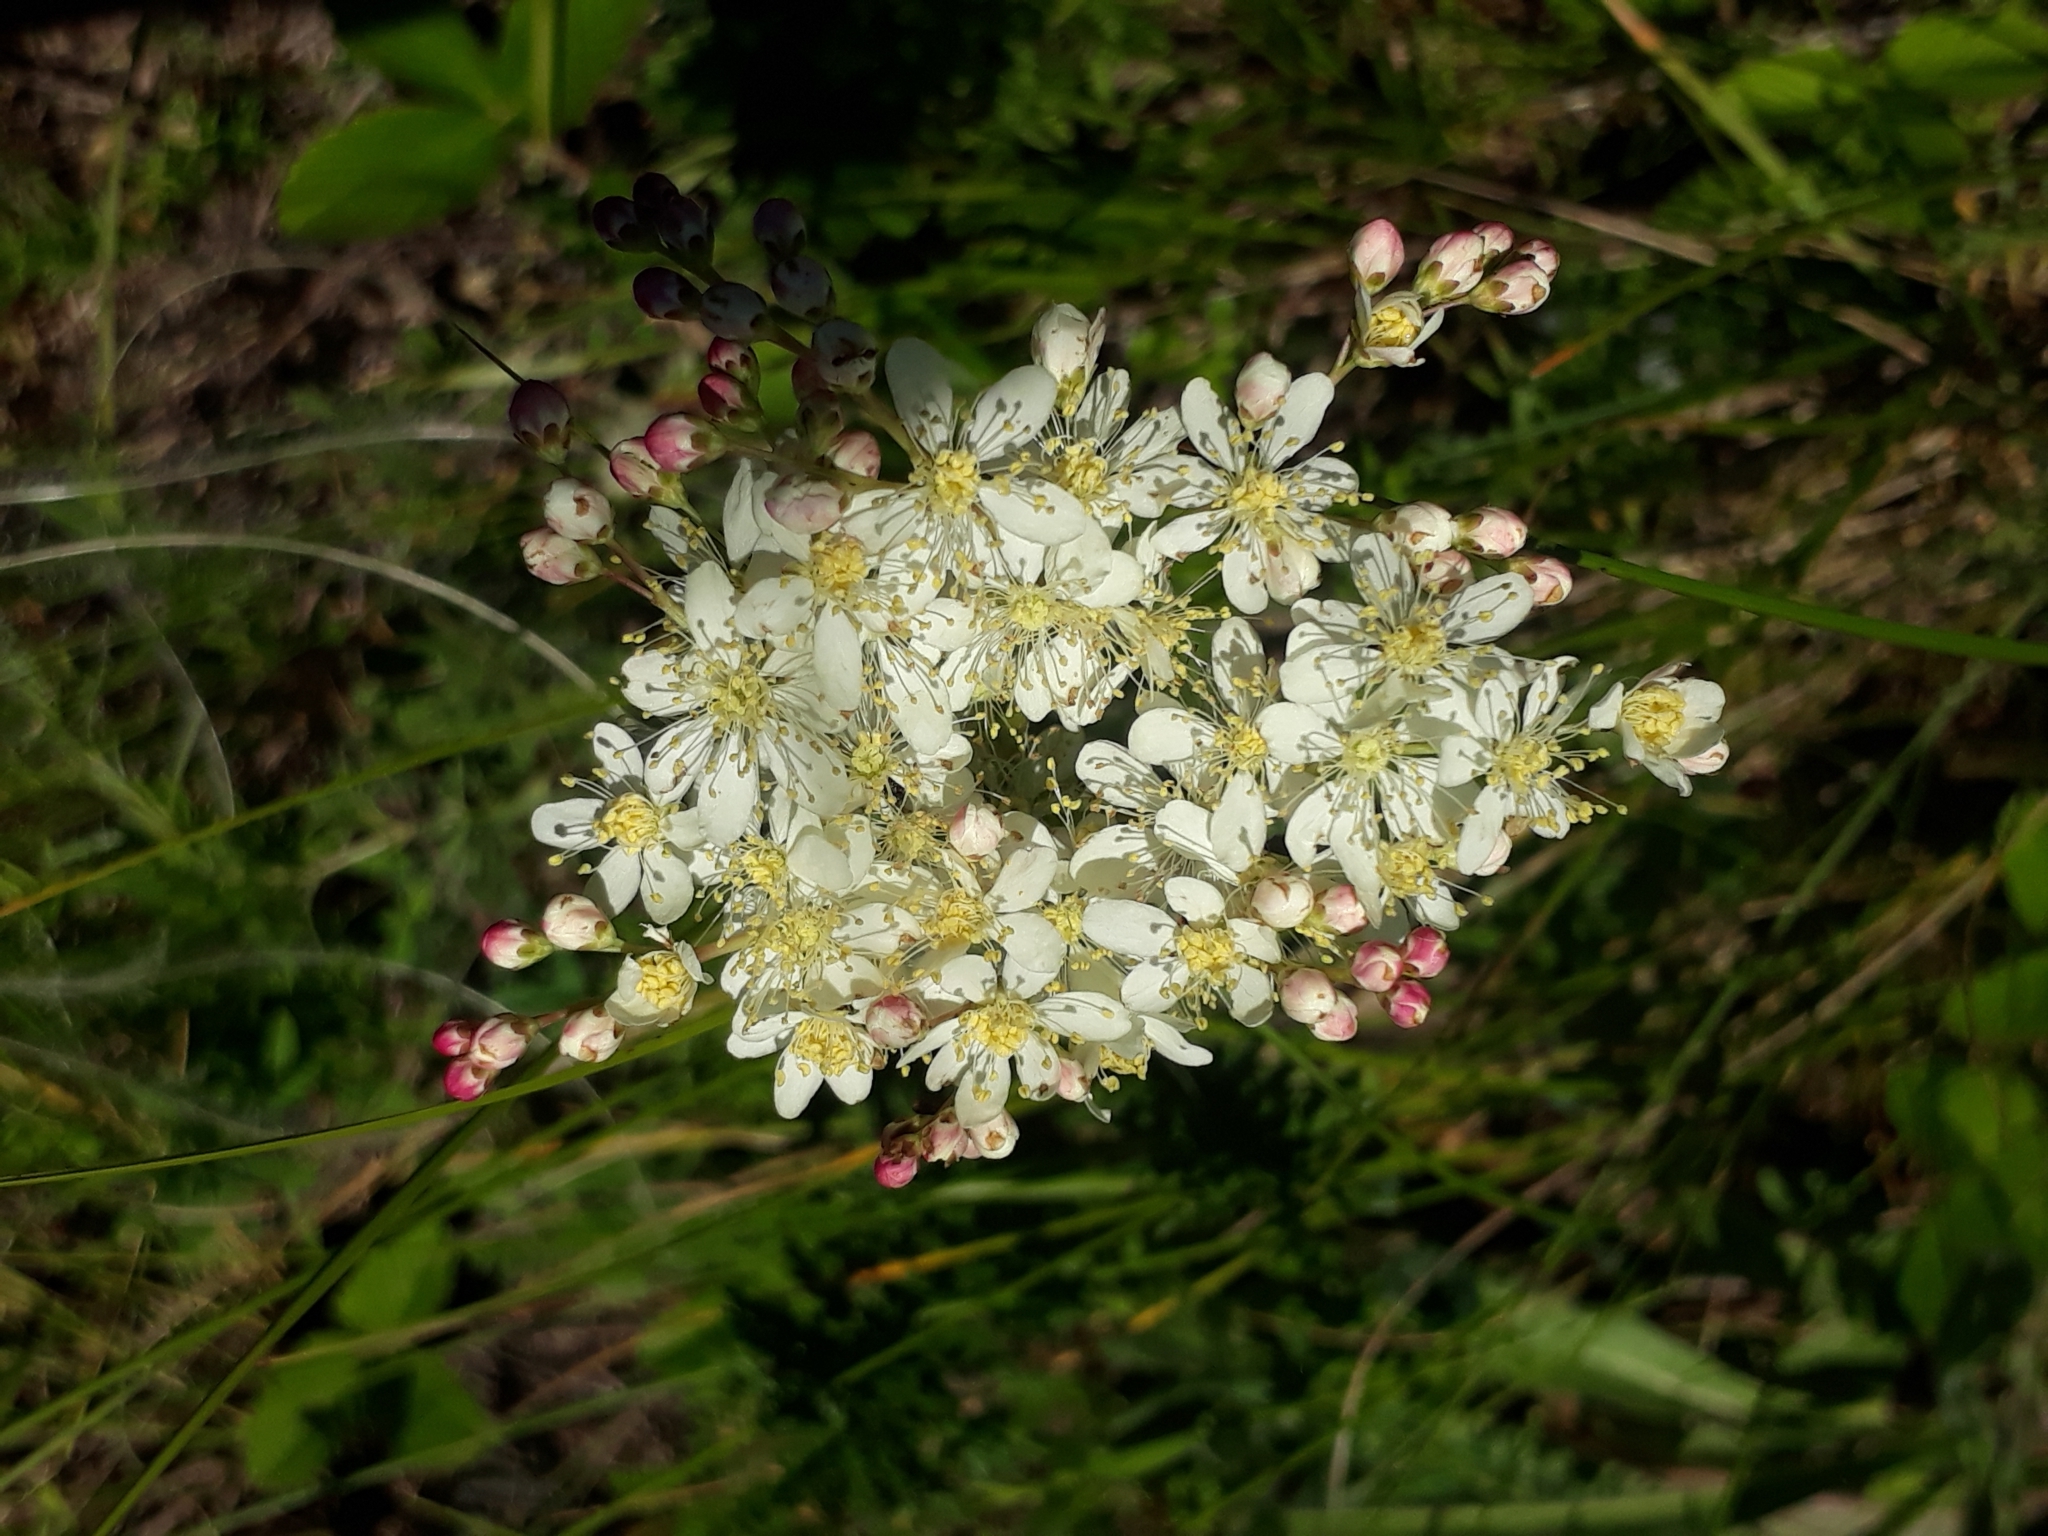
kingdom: Plantae
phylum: Tracheophyta
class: Magnoliopsida
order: Rosales
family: Rosaceae
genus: Filipendula
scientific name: Filipendula vulgaris
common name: Dropwort
